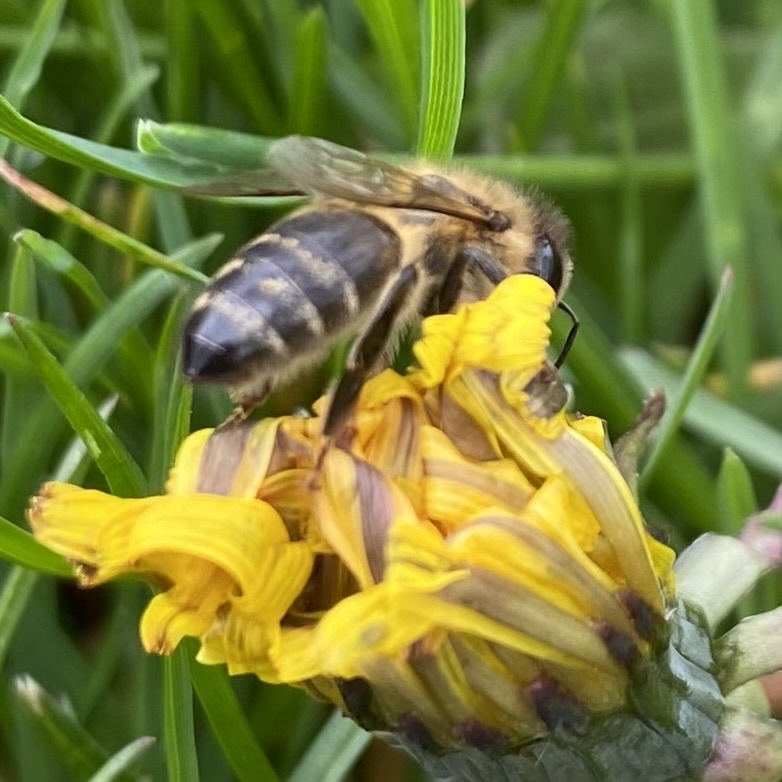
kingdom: Animalia
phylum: Arthropoda
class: Insecta
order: Hymenoptera
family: Apidae
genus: Apis
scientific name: Apis mellifera
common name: Honey bee
